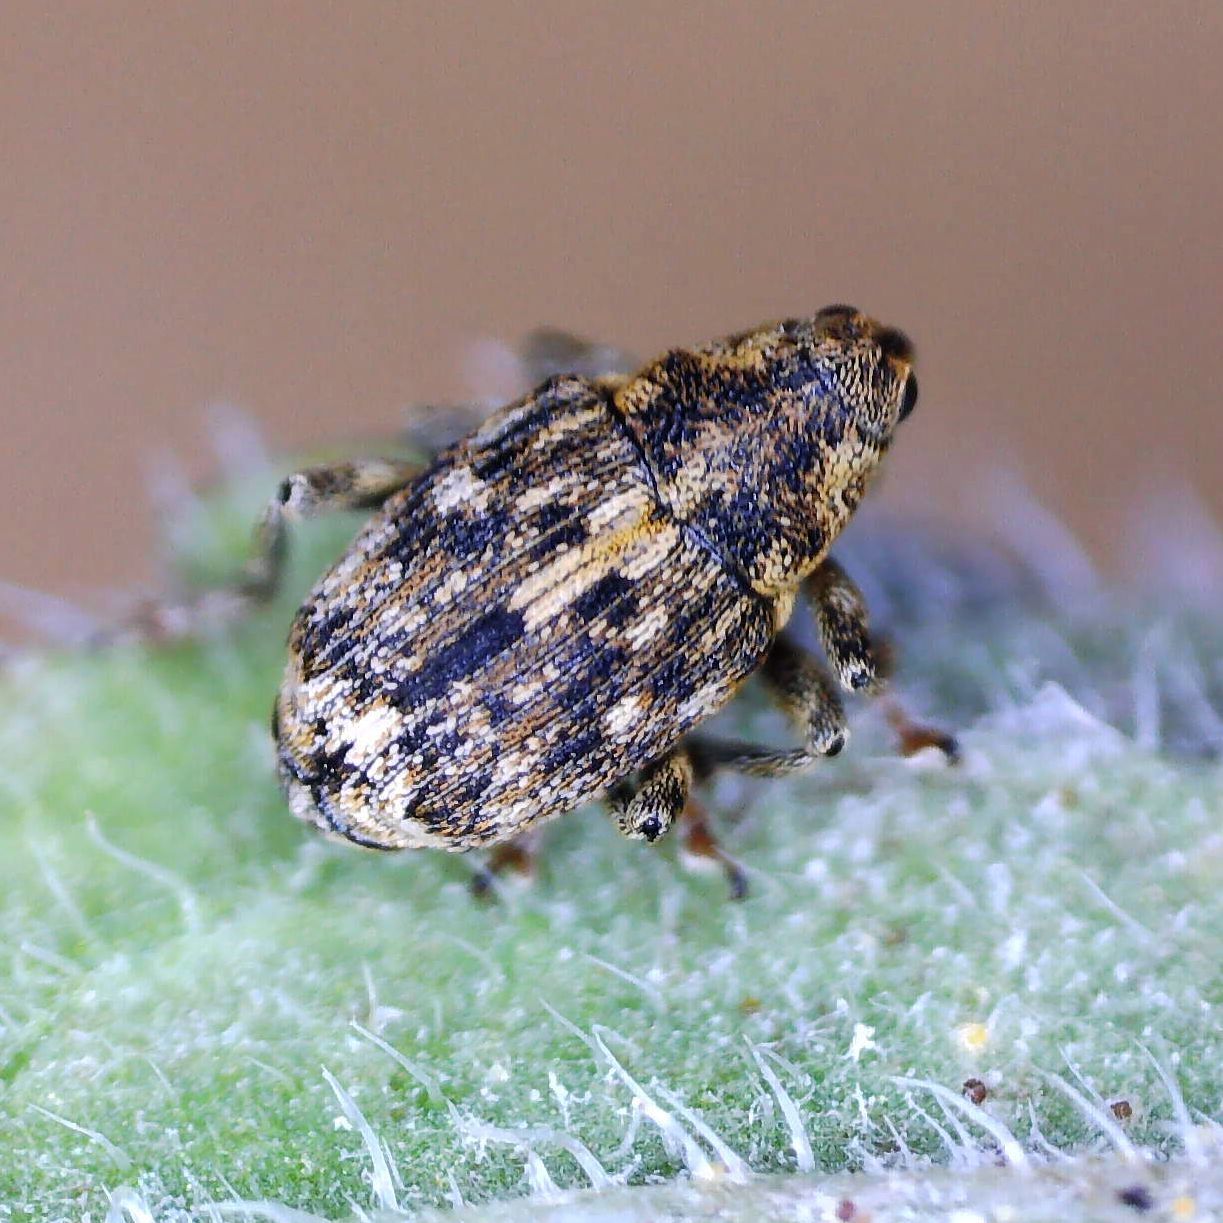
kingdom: Animalia
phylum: Arthropoda
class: Insecta
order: Coleoptera
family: Curculionidae
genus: Datonychus
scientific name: Datonychus melanostictus
